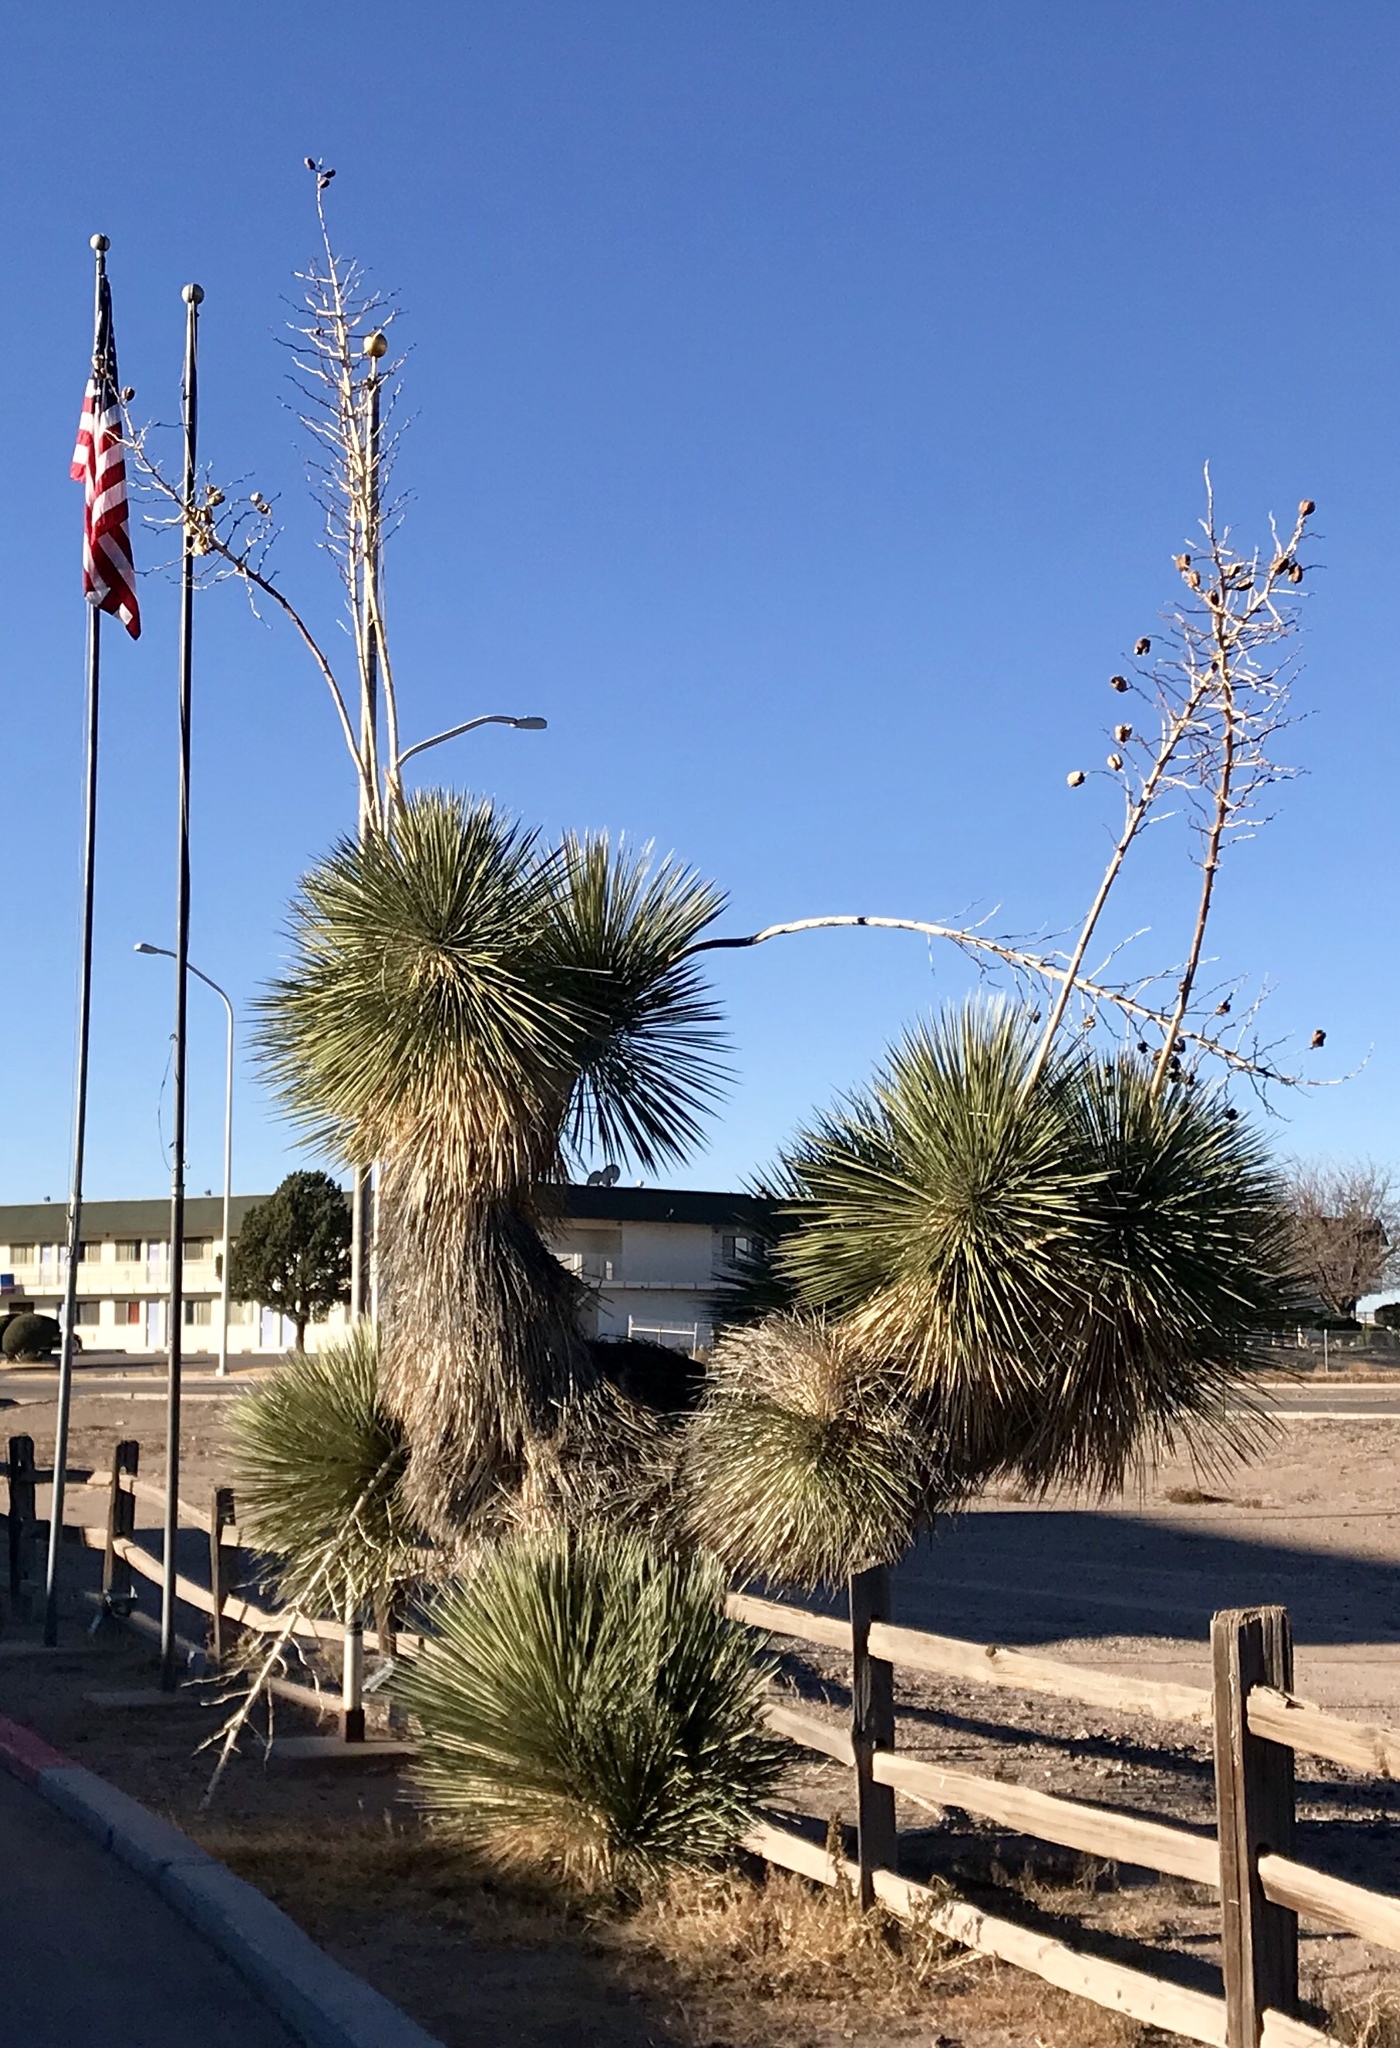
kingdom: Plantae
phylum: Tracheophyta
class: Liliopsida
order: Asparagales
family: Asparagaceae
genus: Yucca
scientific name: Yucca elata
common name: Palmella
